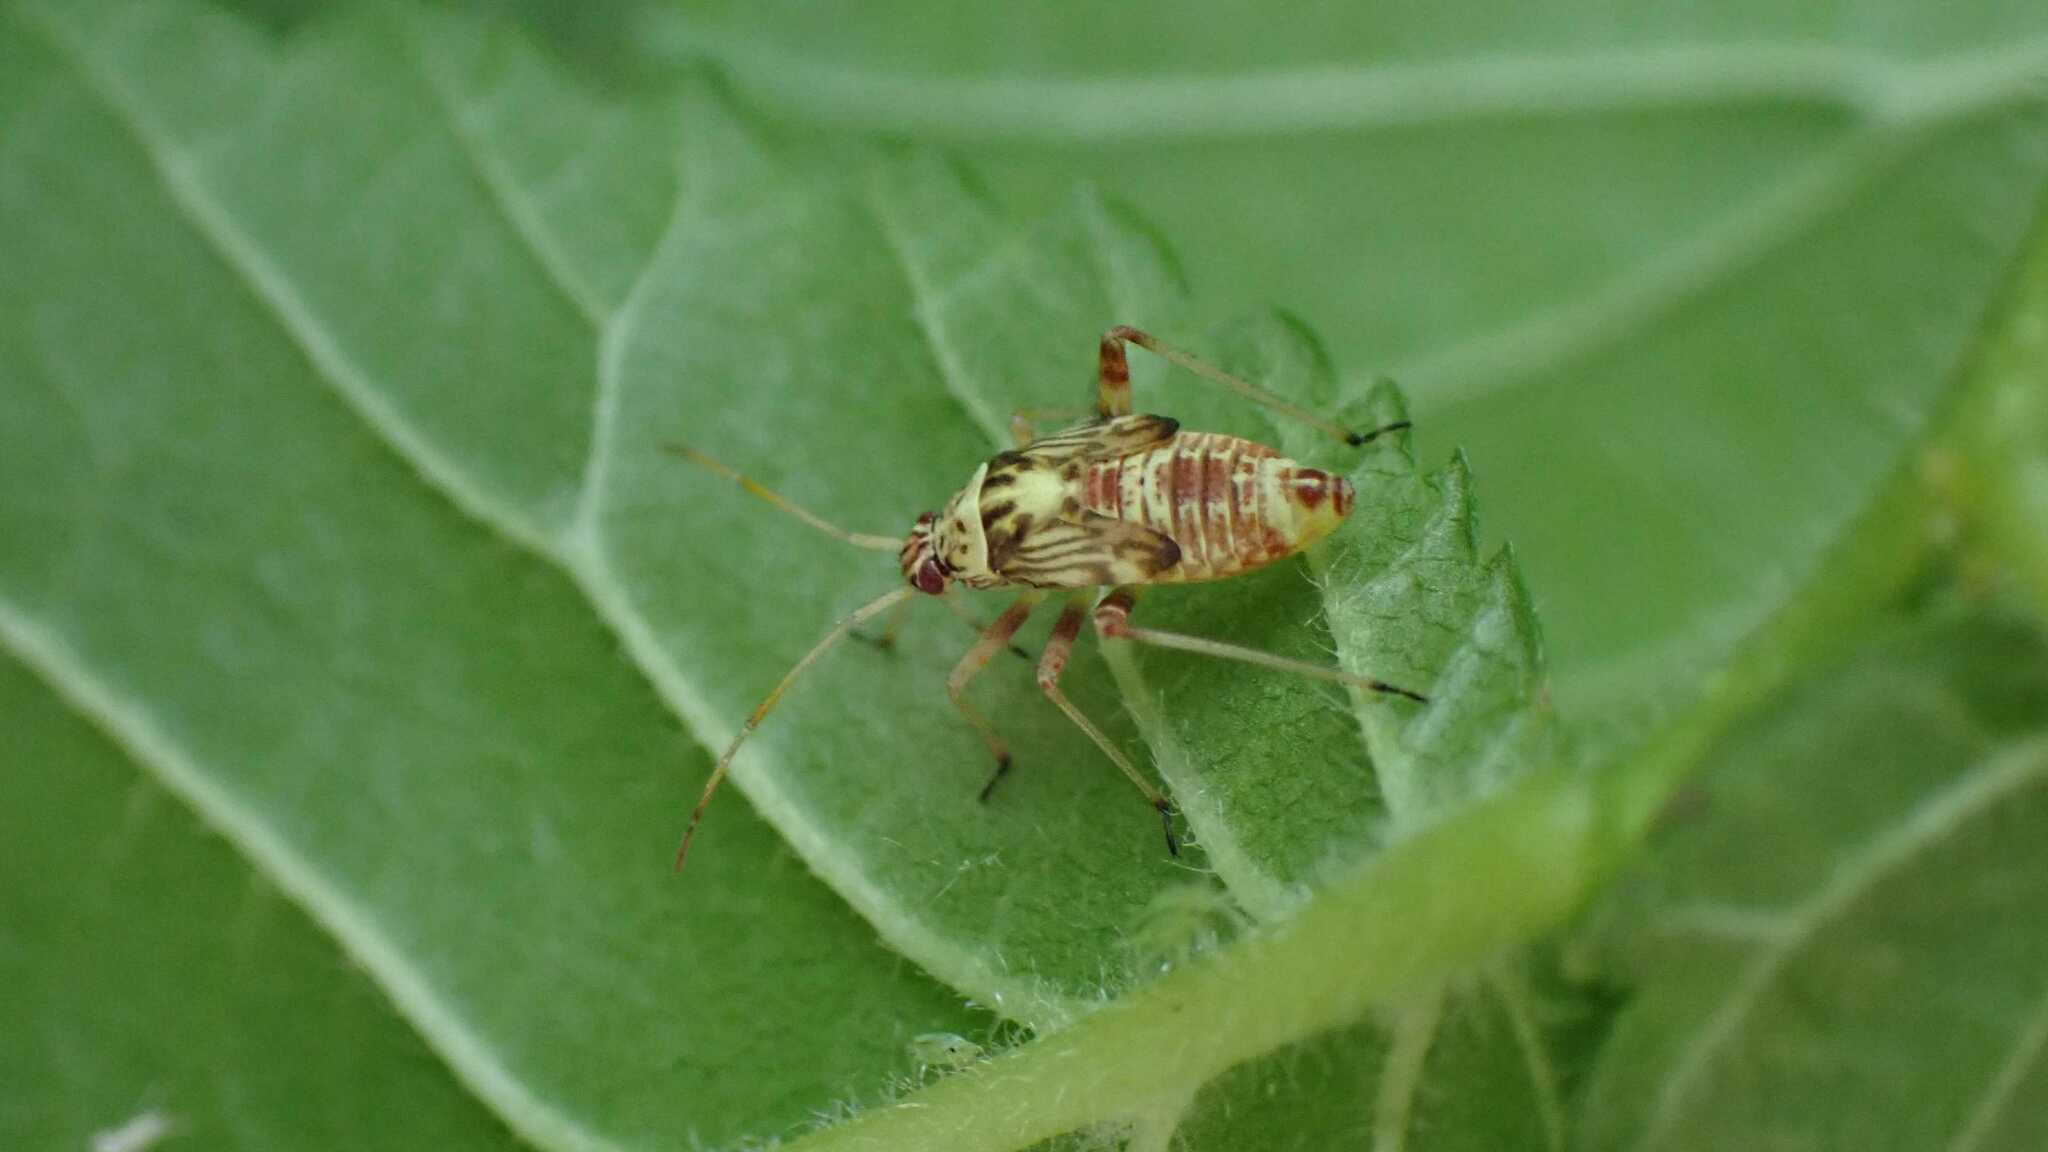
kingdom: Animalia
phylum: Arthropoda
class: Insecta
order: Hemiptera
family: Miridae
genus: Rhabdomiris
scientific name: Rhabdomiris striatellus
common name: Plant bug
